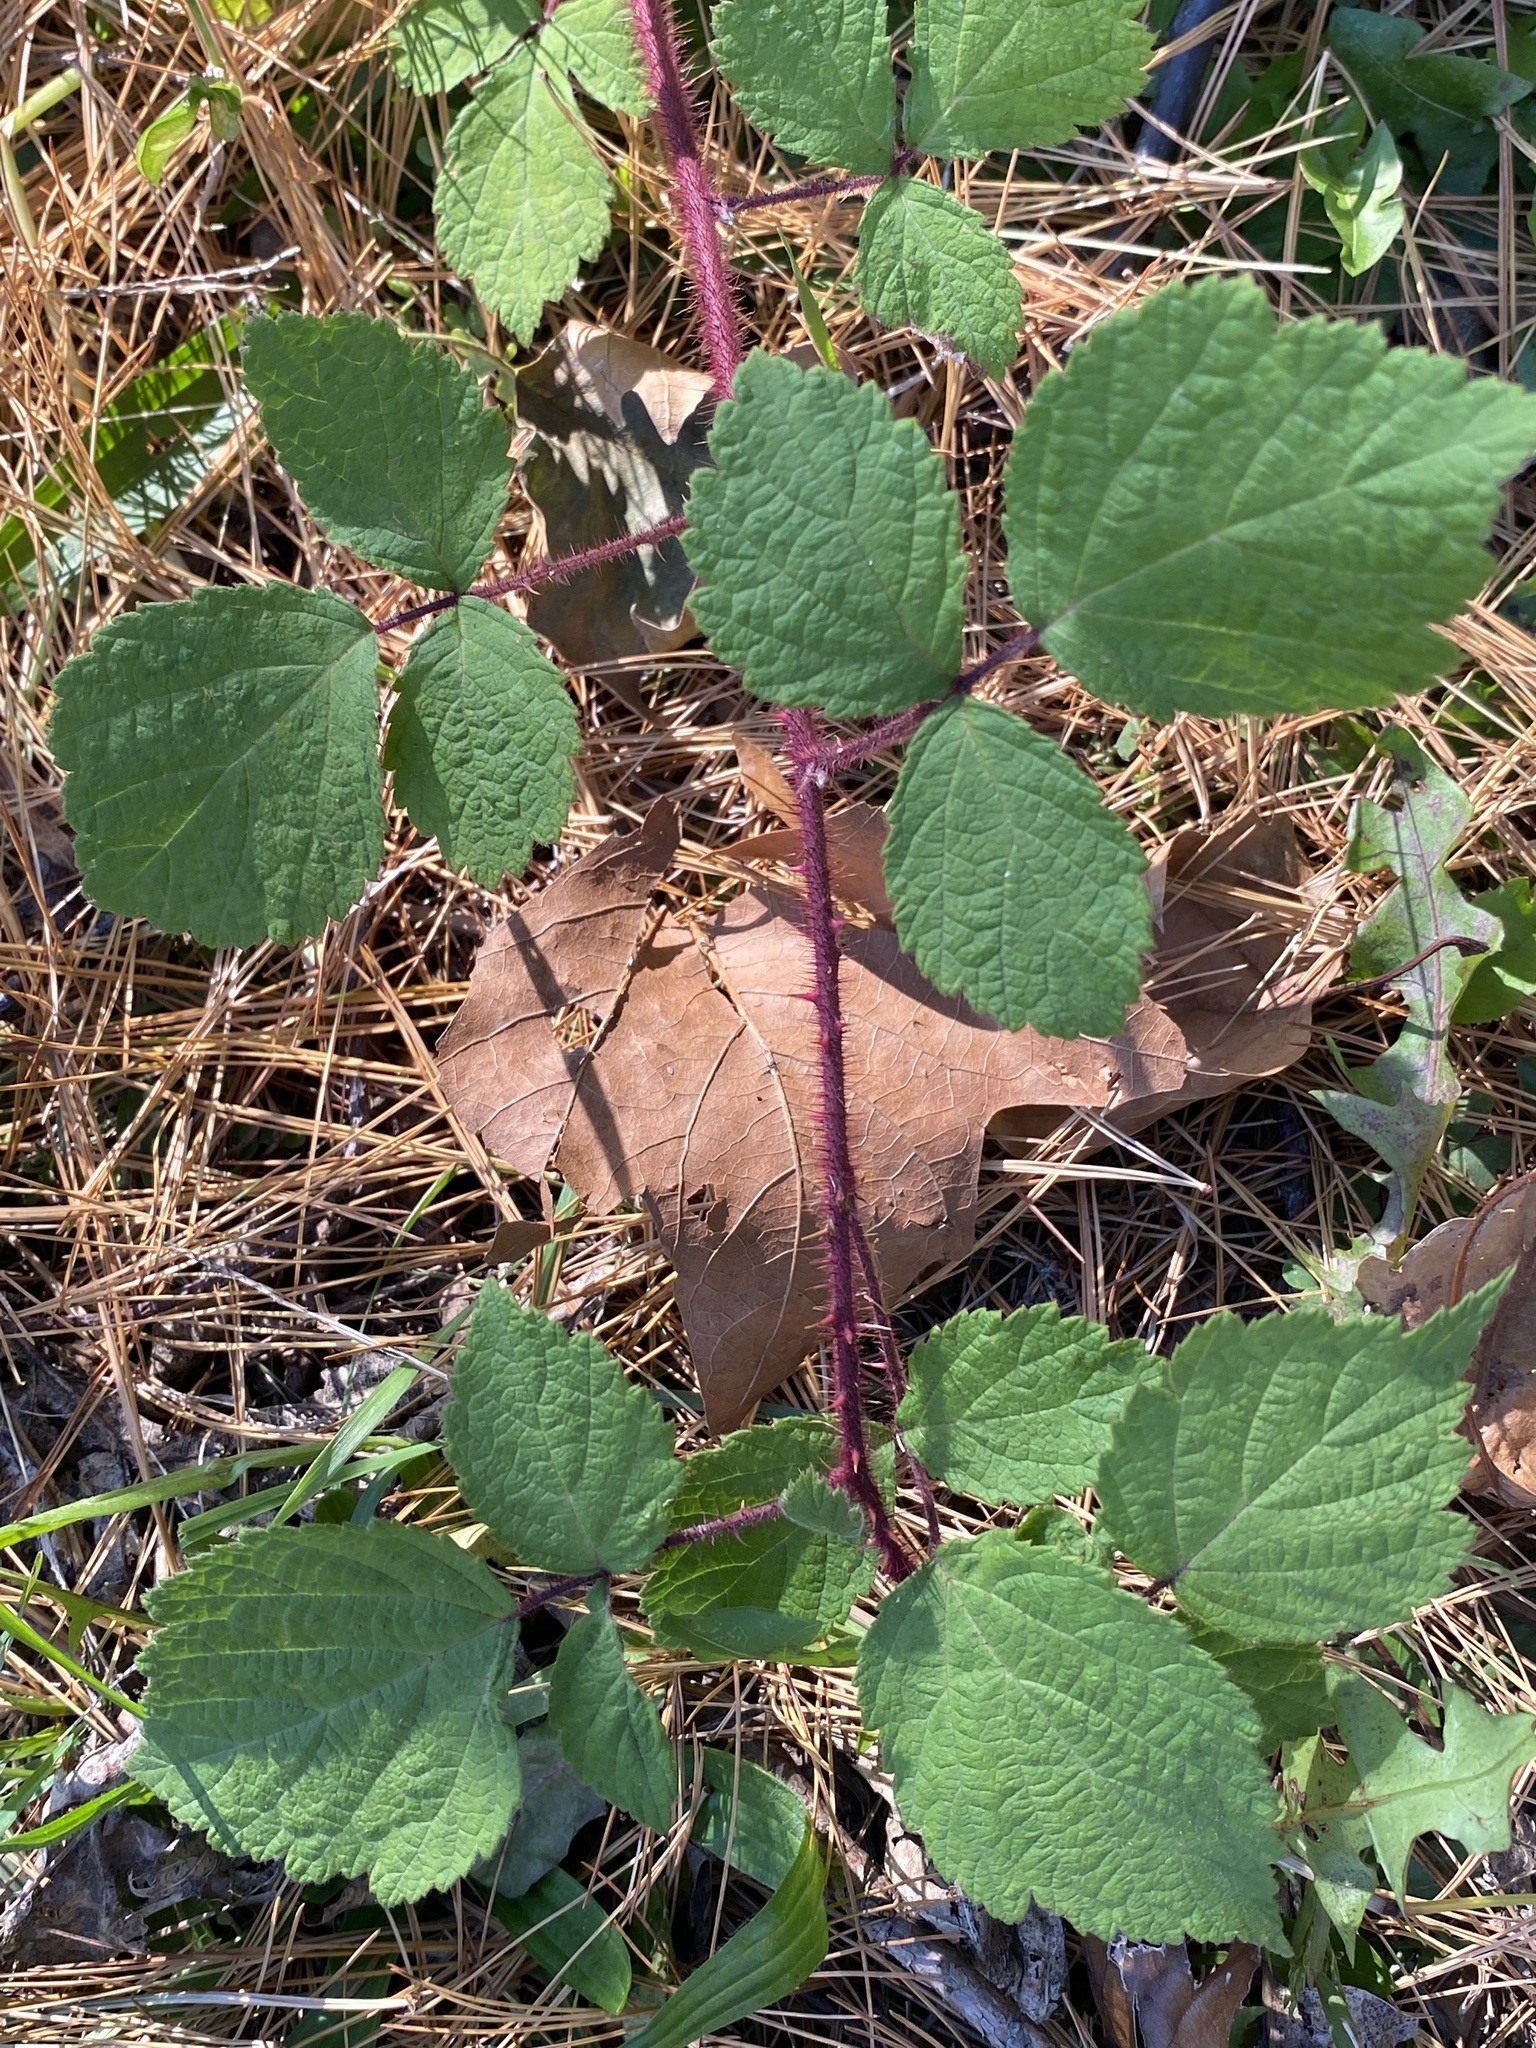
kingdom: Plantae
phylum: Tracheophyta
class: Magnoliopsida
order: Rosales
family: Rosaceae
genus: Rubus
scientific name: Rubus phoenicolasius
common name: Japanese wineberry
